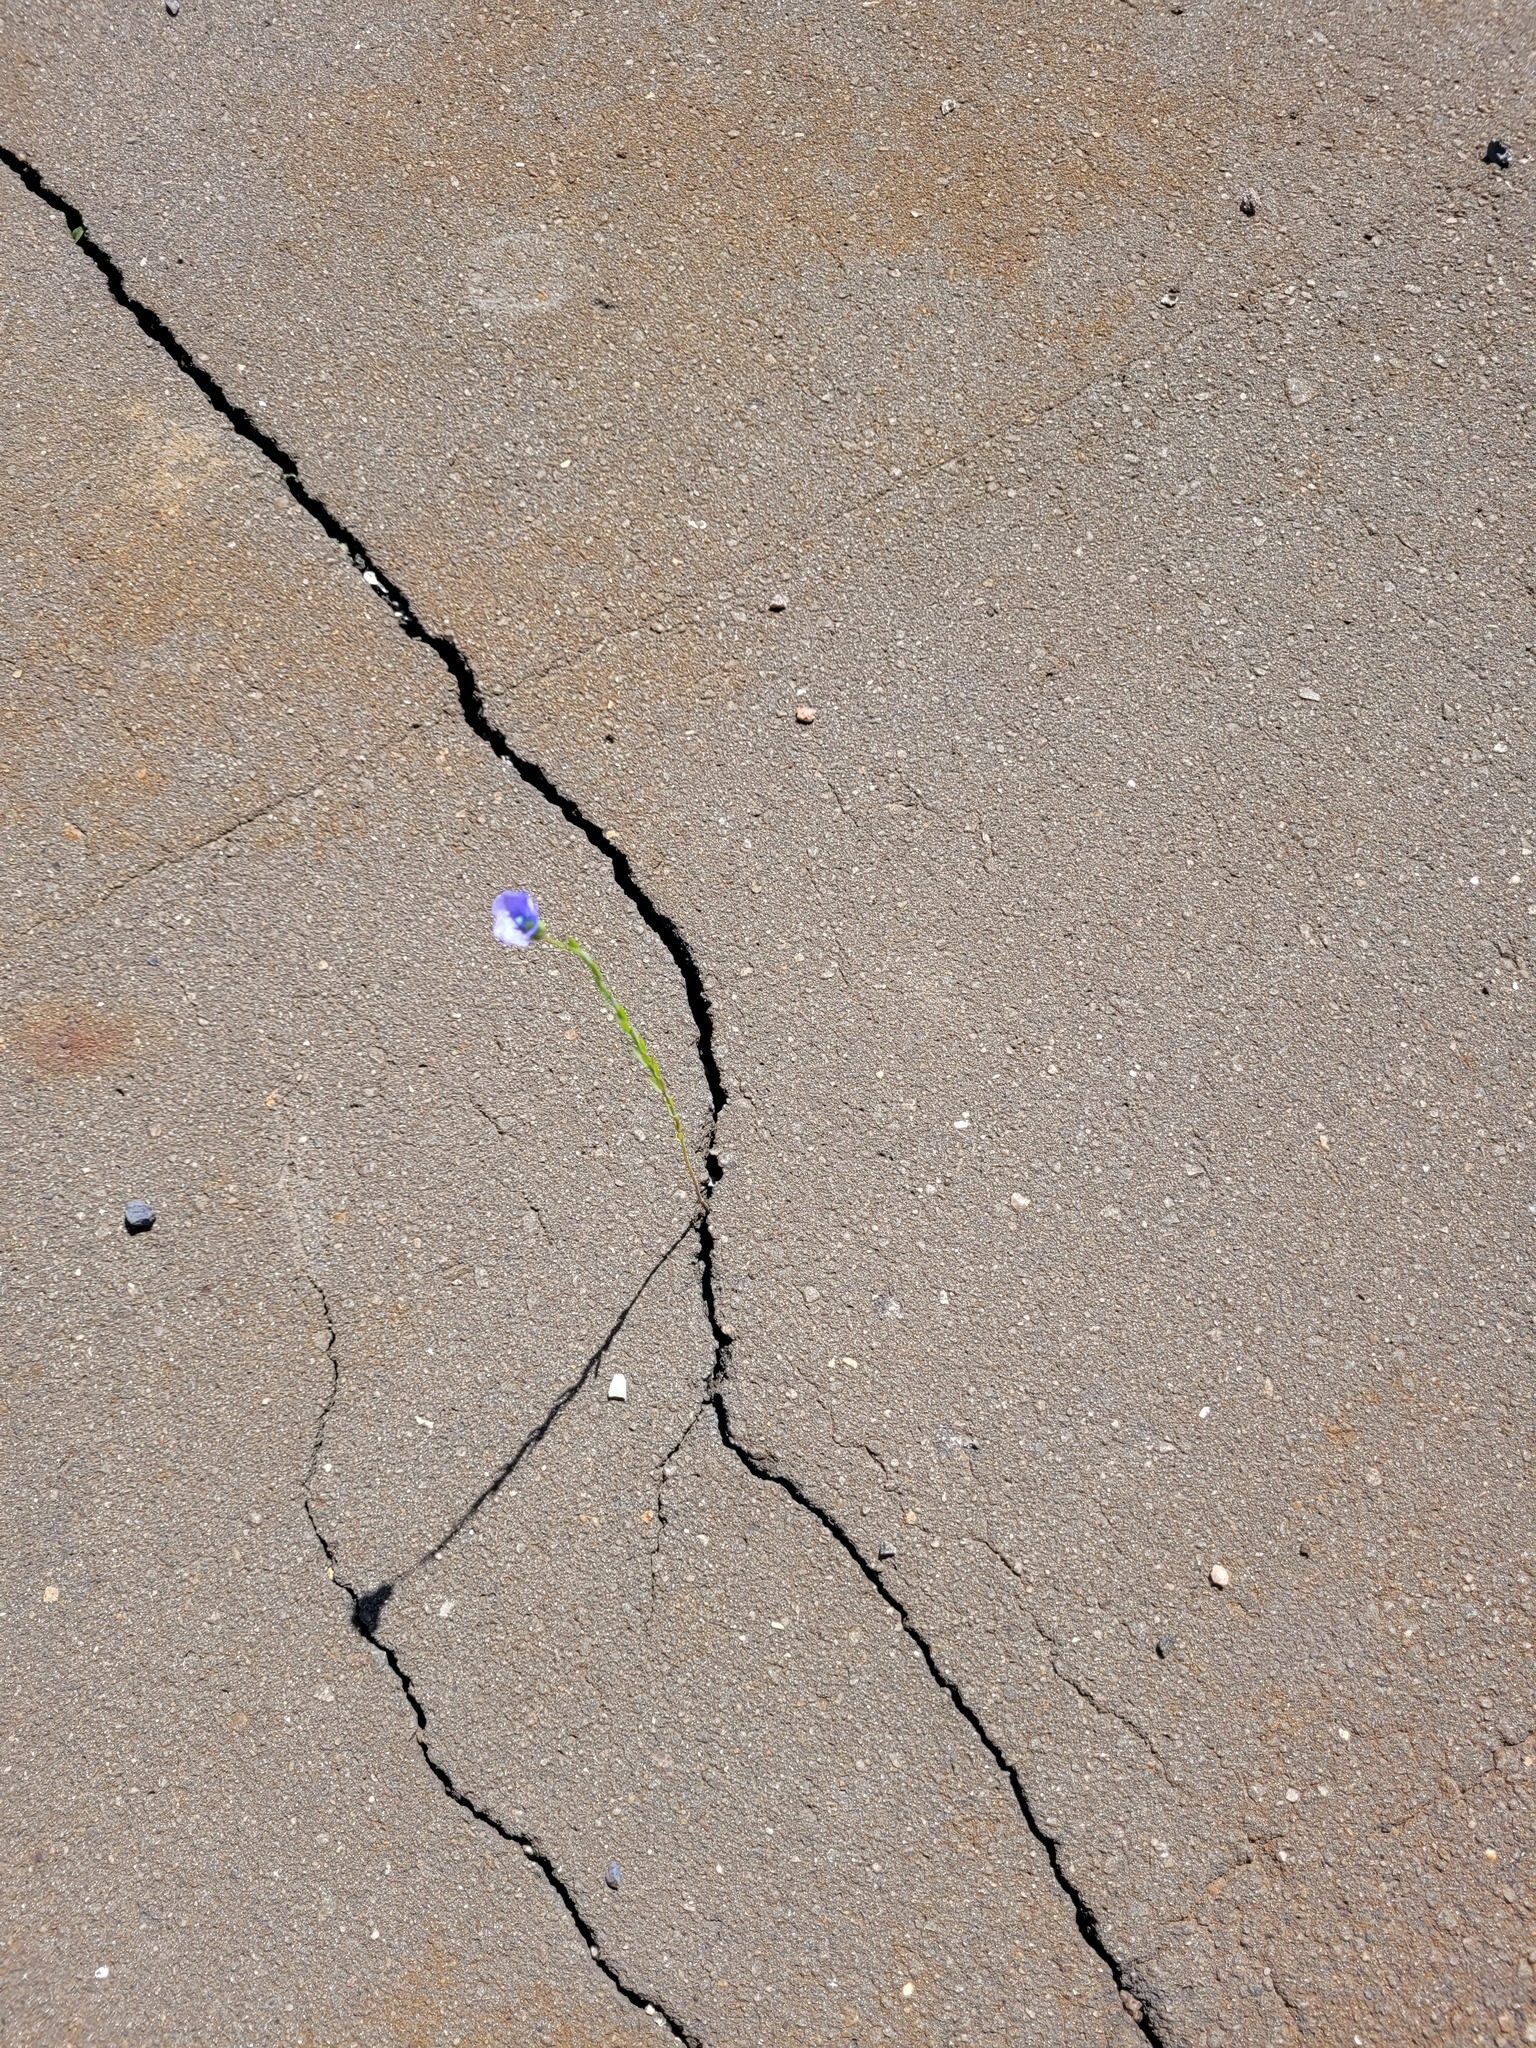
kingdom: Plantae
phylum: Tracheophyta
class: Magnoliopsida
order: Malpighiales
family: Linaceae
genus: Linum
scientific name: Linum usitatissimum
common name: Flax
